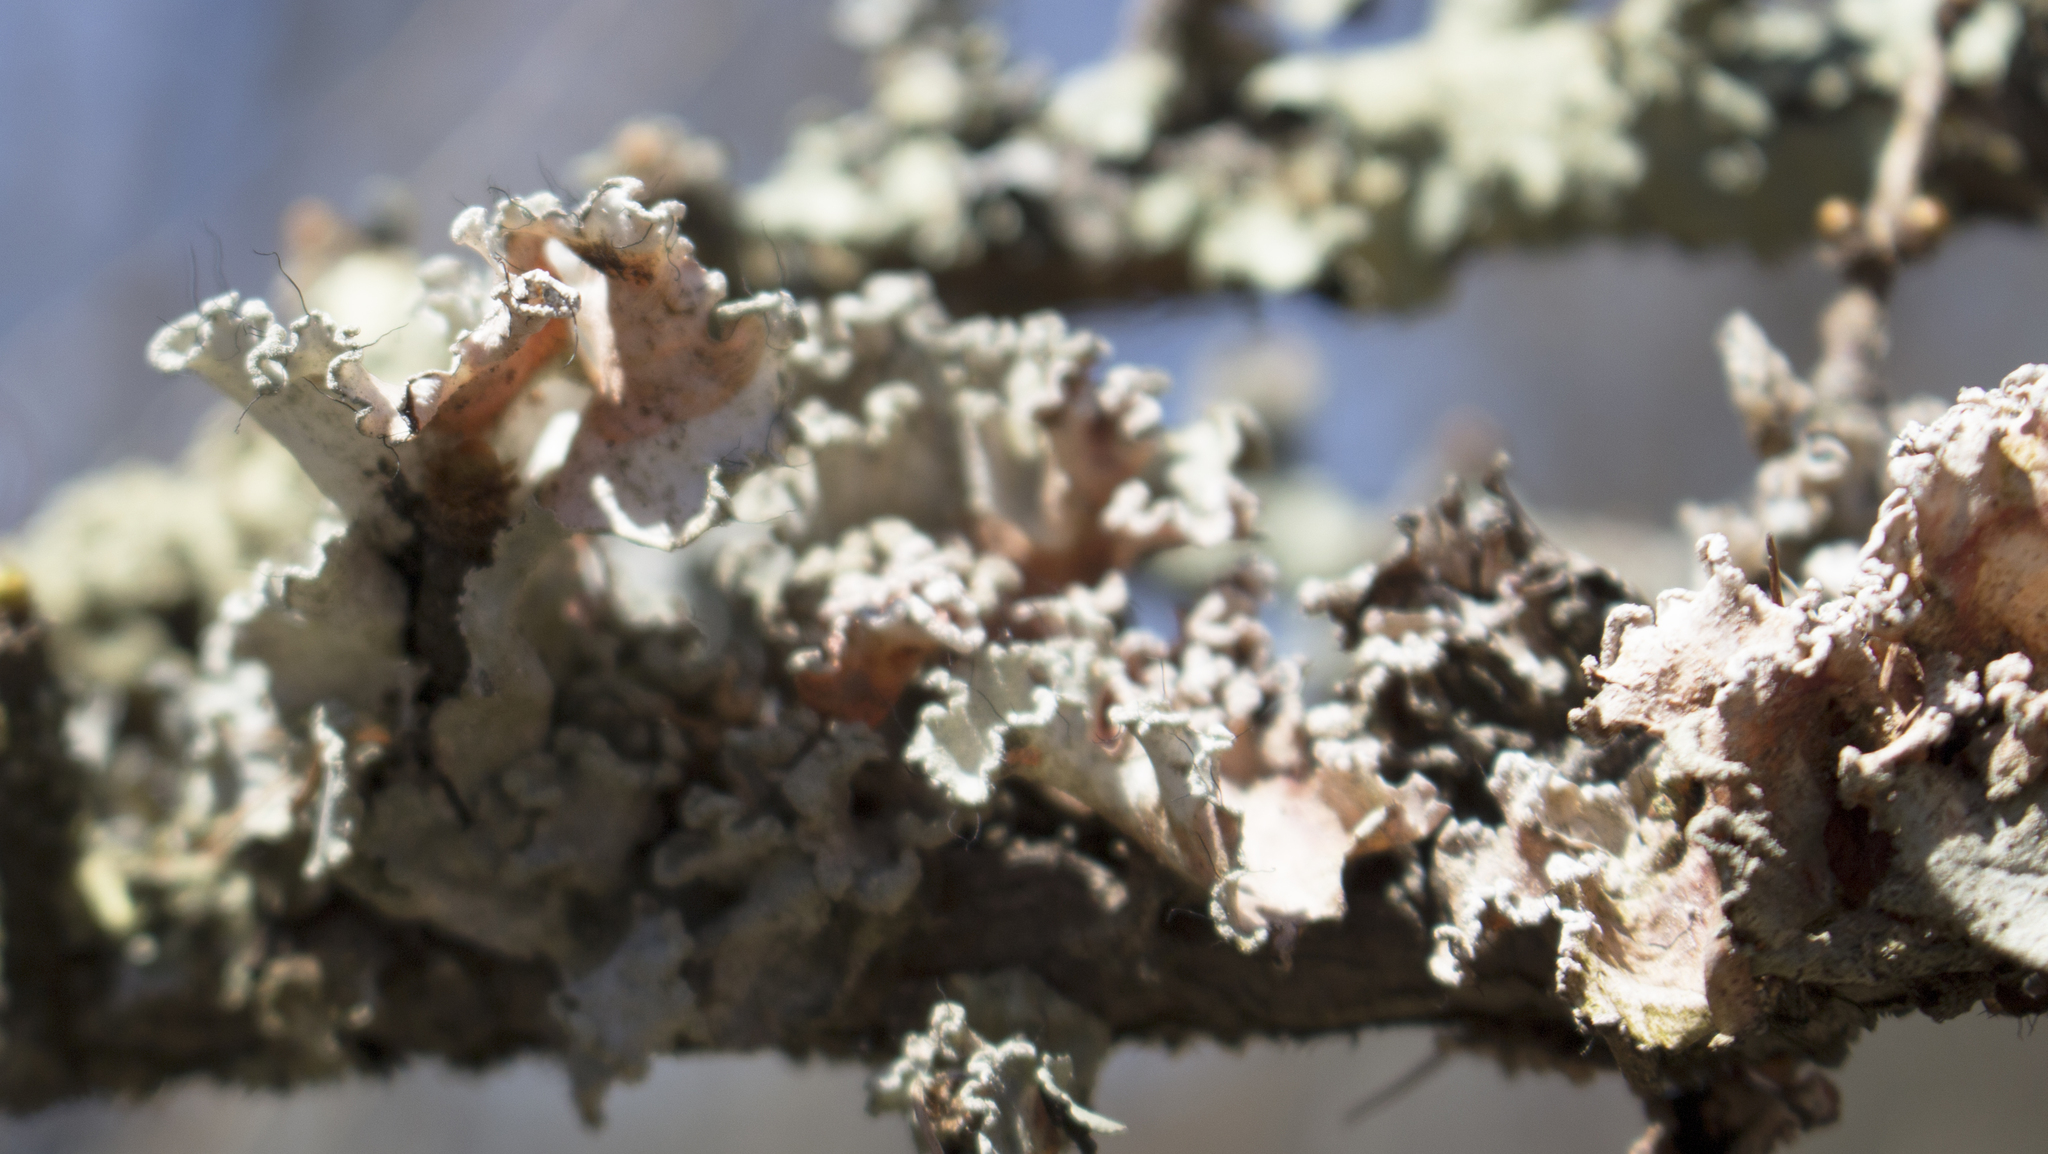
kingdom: Fungi
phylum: Ascomycota
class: Lecanoromycetes
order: Lecanorales
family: Parmeliaceae
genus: Parmotrema
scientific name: Parmotrema hypotropum
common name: Powdered ruffle lichen
